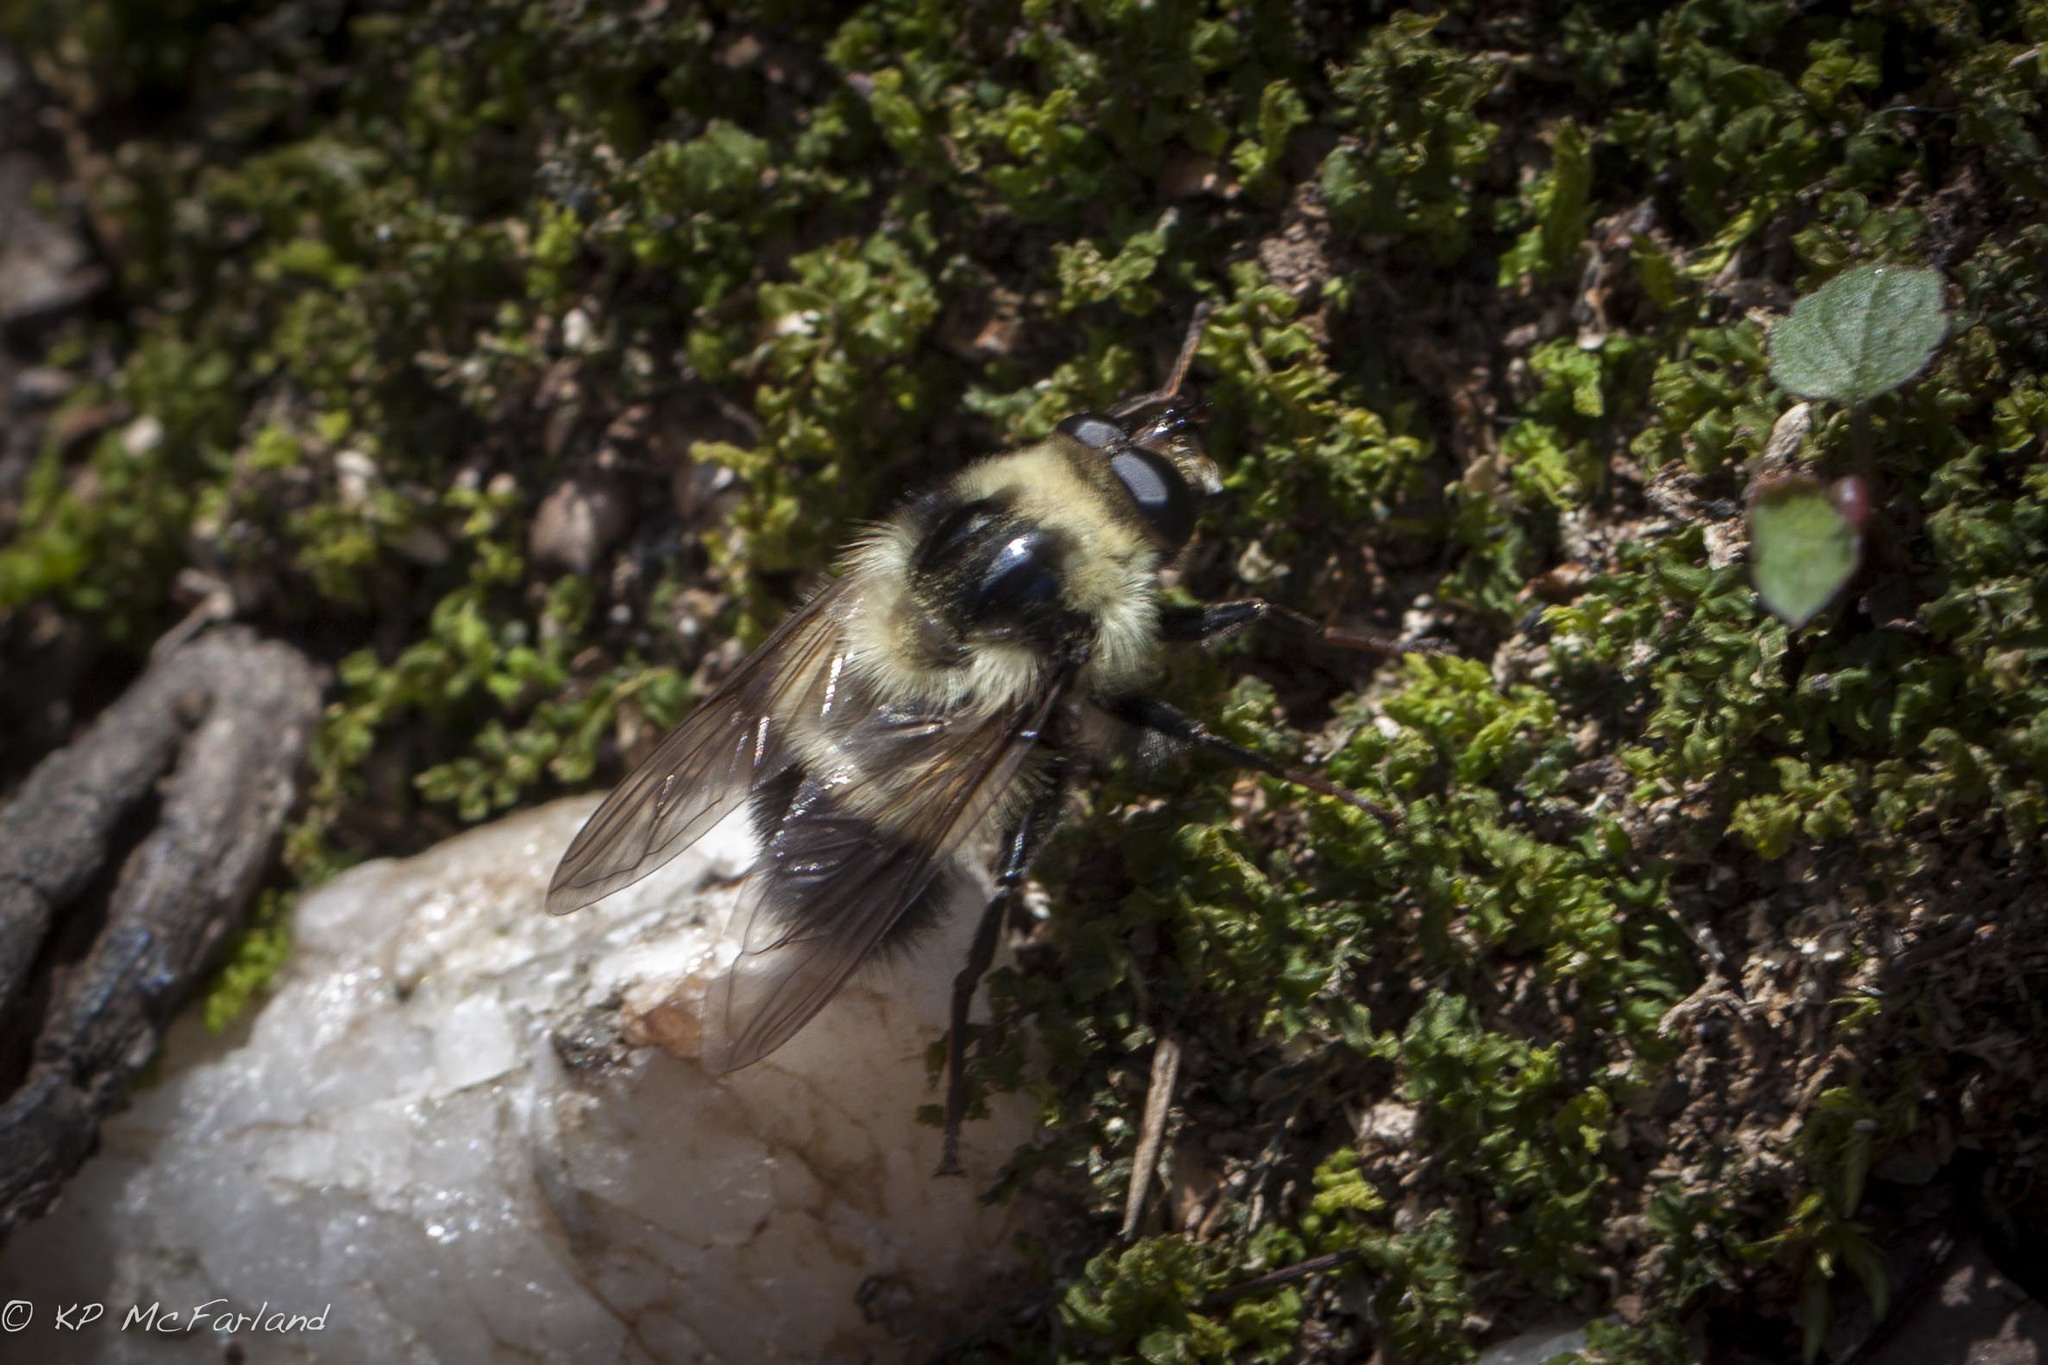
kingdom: Animalia
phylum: Arthropoda
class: Insecta
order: Diptera
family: Syrphidae
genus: Criorhina
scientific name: Criorhina
